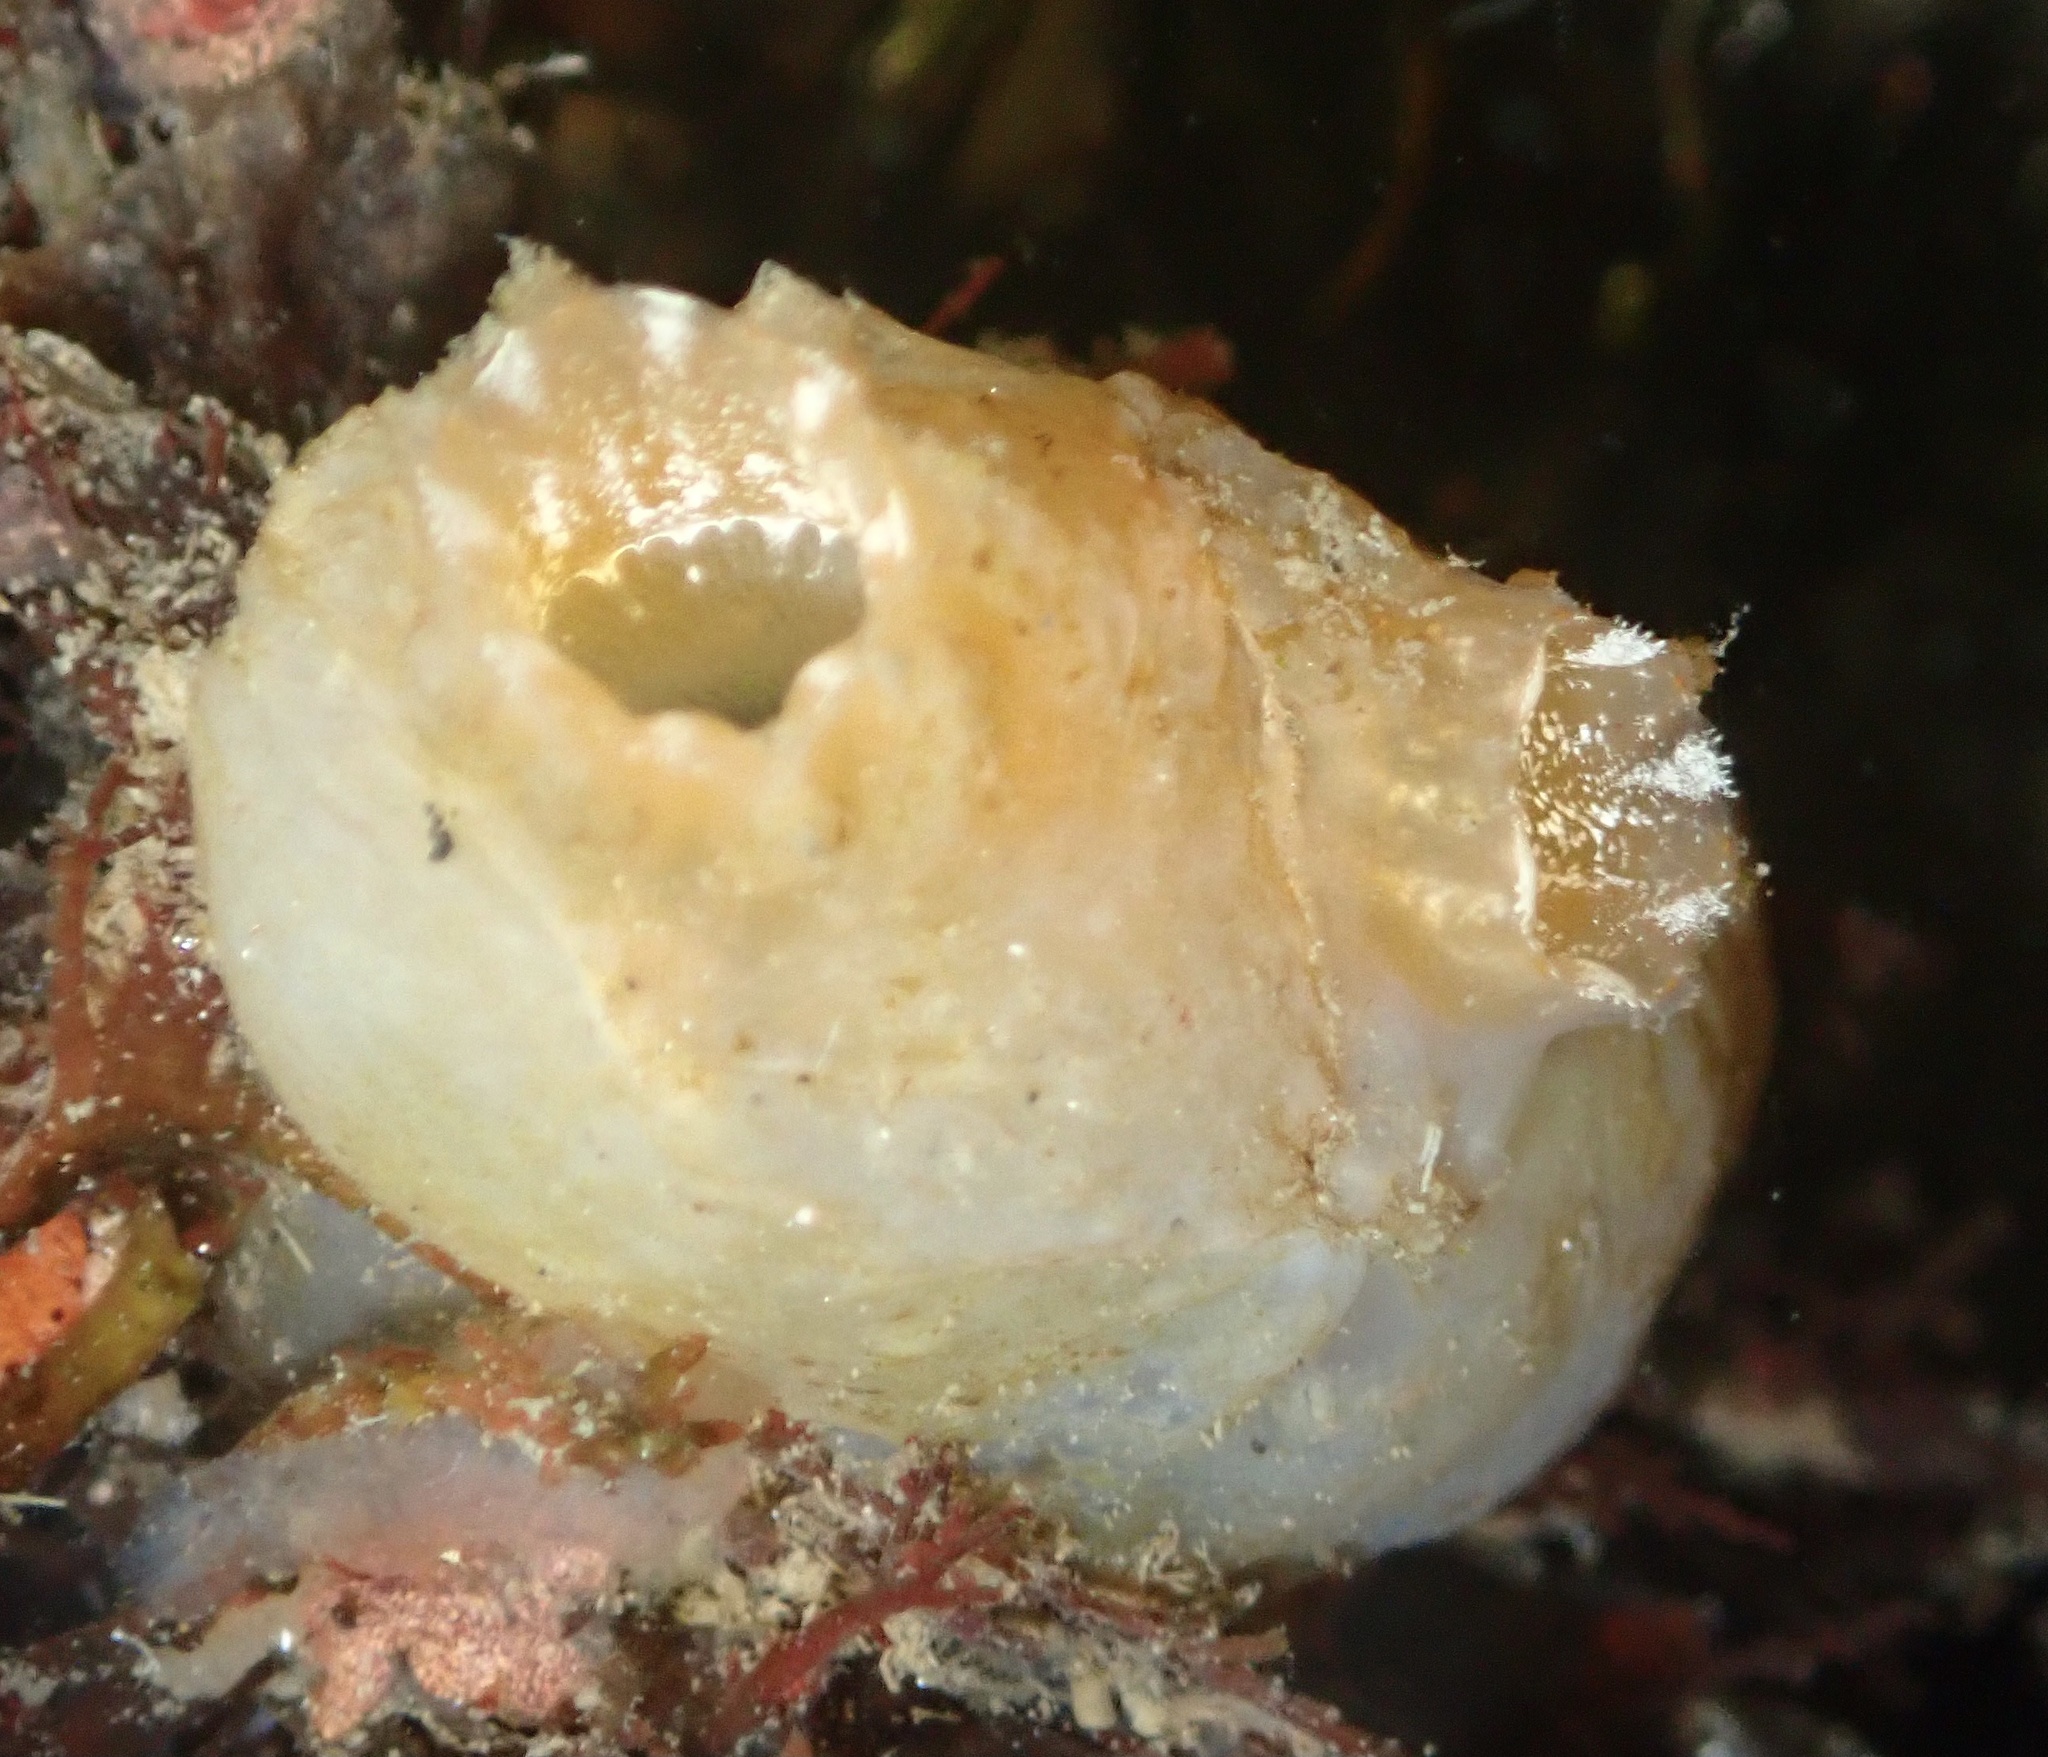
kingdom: Animalia
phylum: Chordata
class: Ascidiacea
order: Phlebobranchia
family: Ascidiidae
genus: Ascidiella
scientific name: Ascidiella aspersa
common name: Dirty sea-squirt
